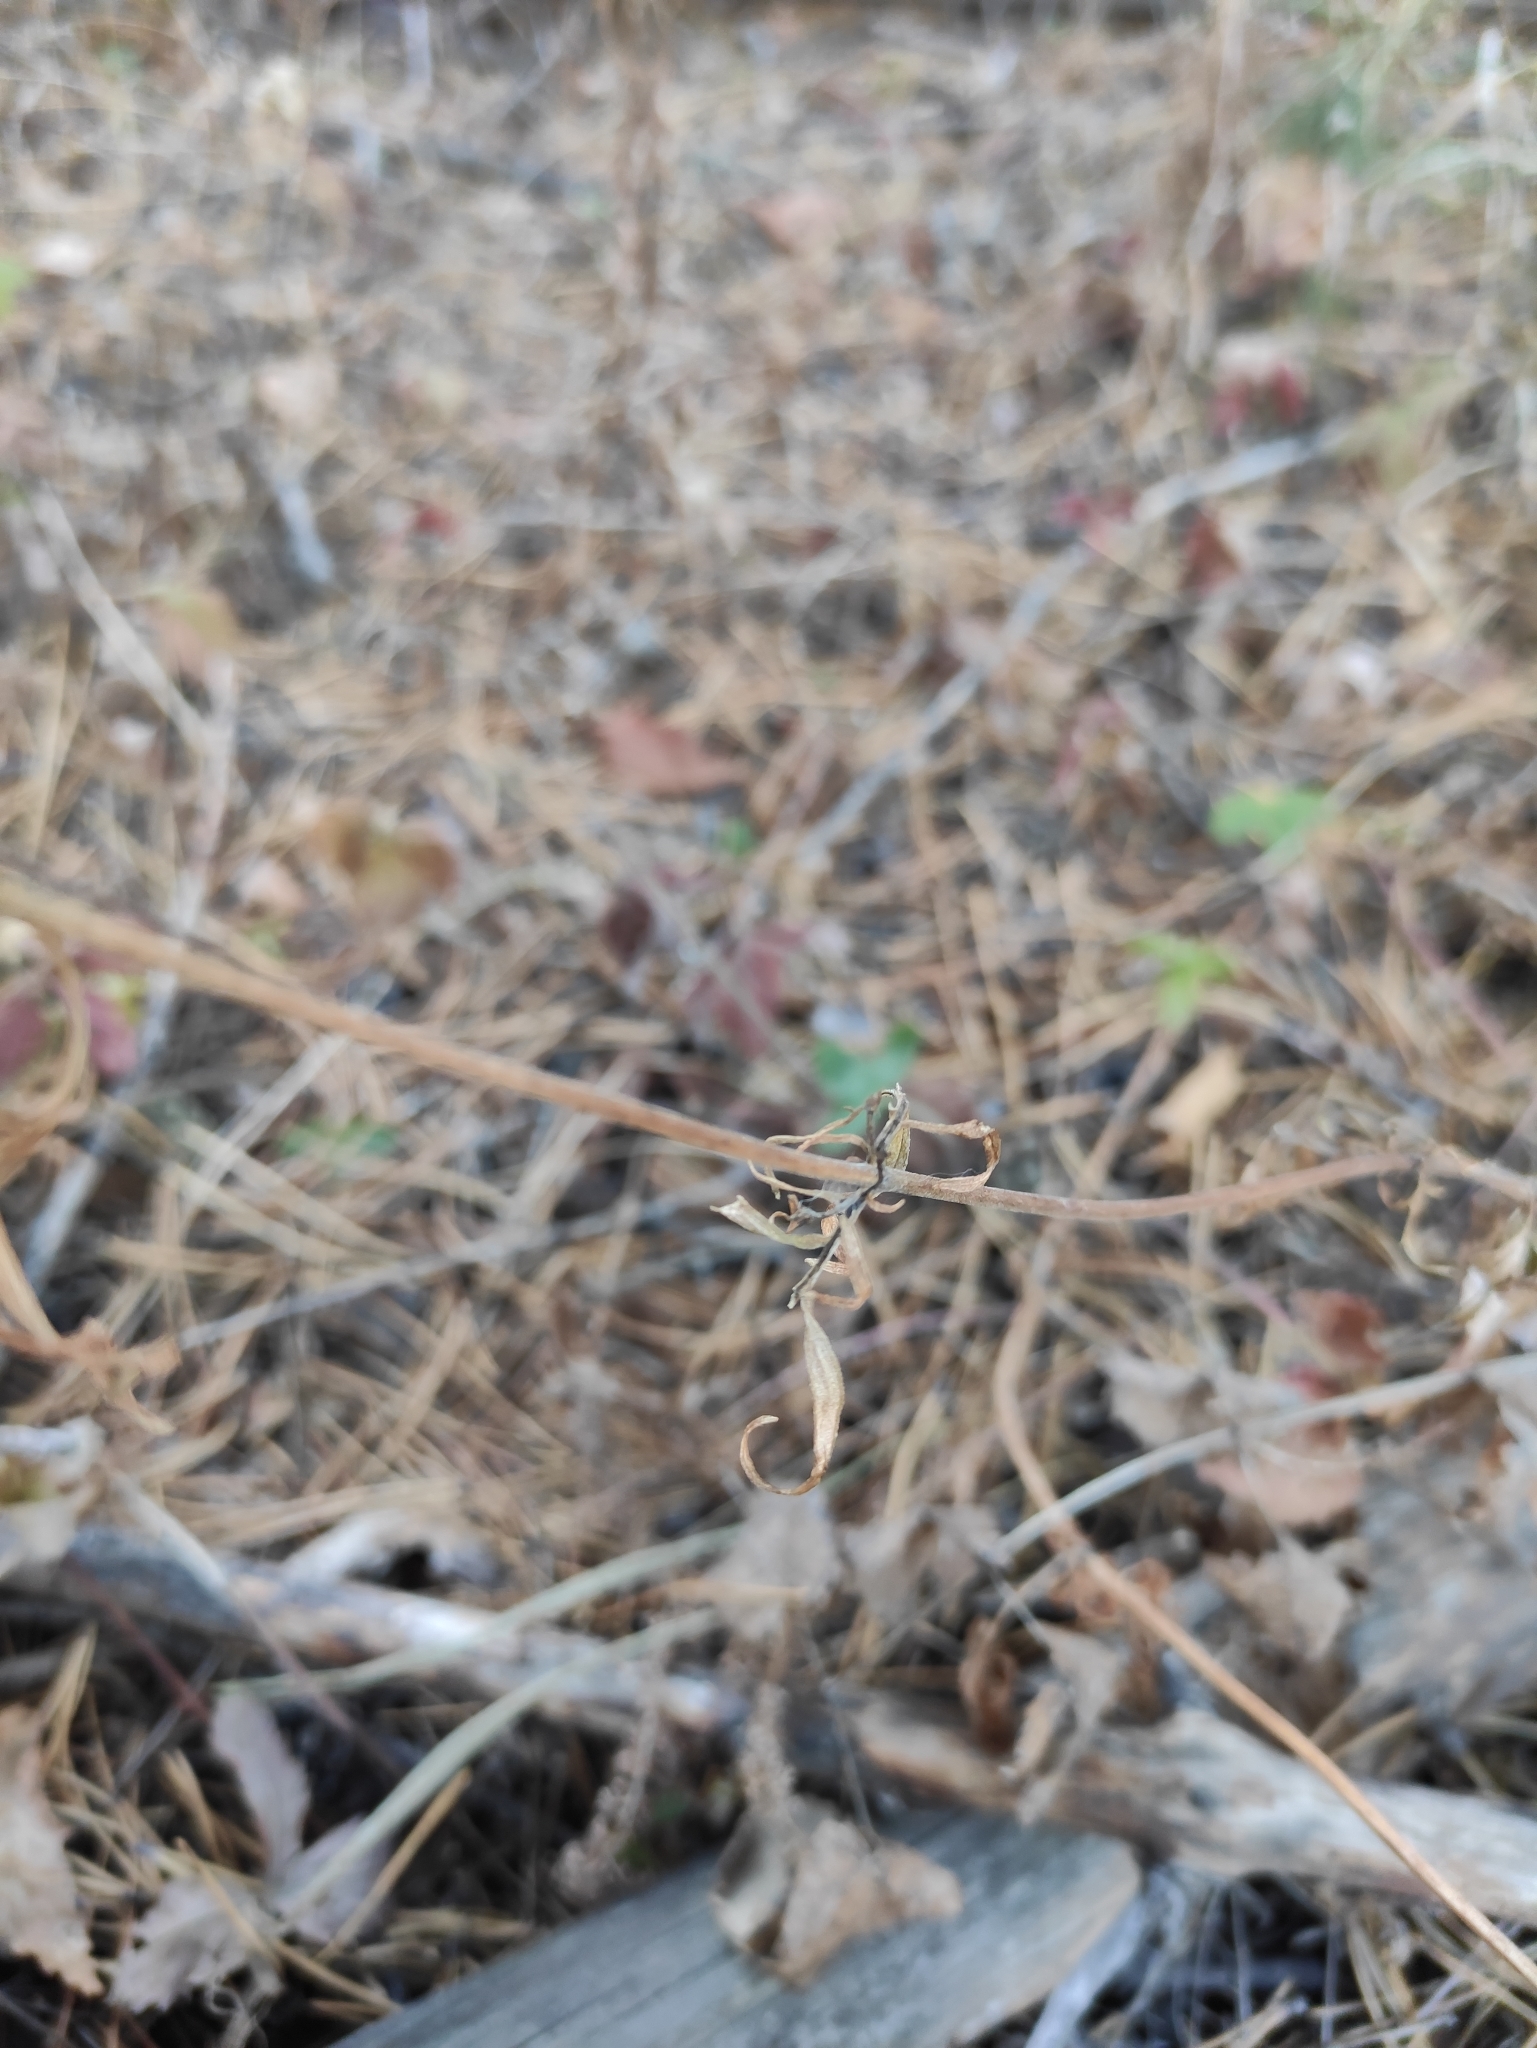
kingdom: Plantae
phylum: Tracheophyta
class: Magnoliopsida
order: Dipsacales
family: Caprifoliaceae
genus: Patrinia
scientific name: Patrinia rupestris
